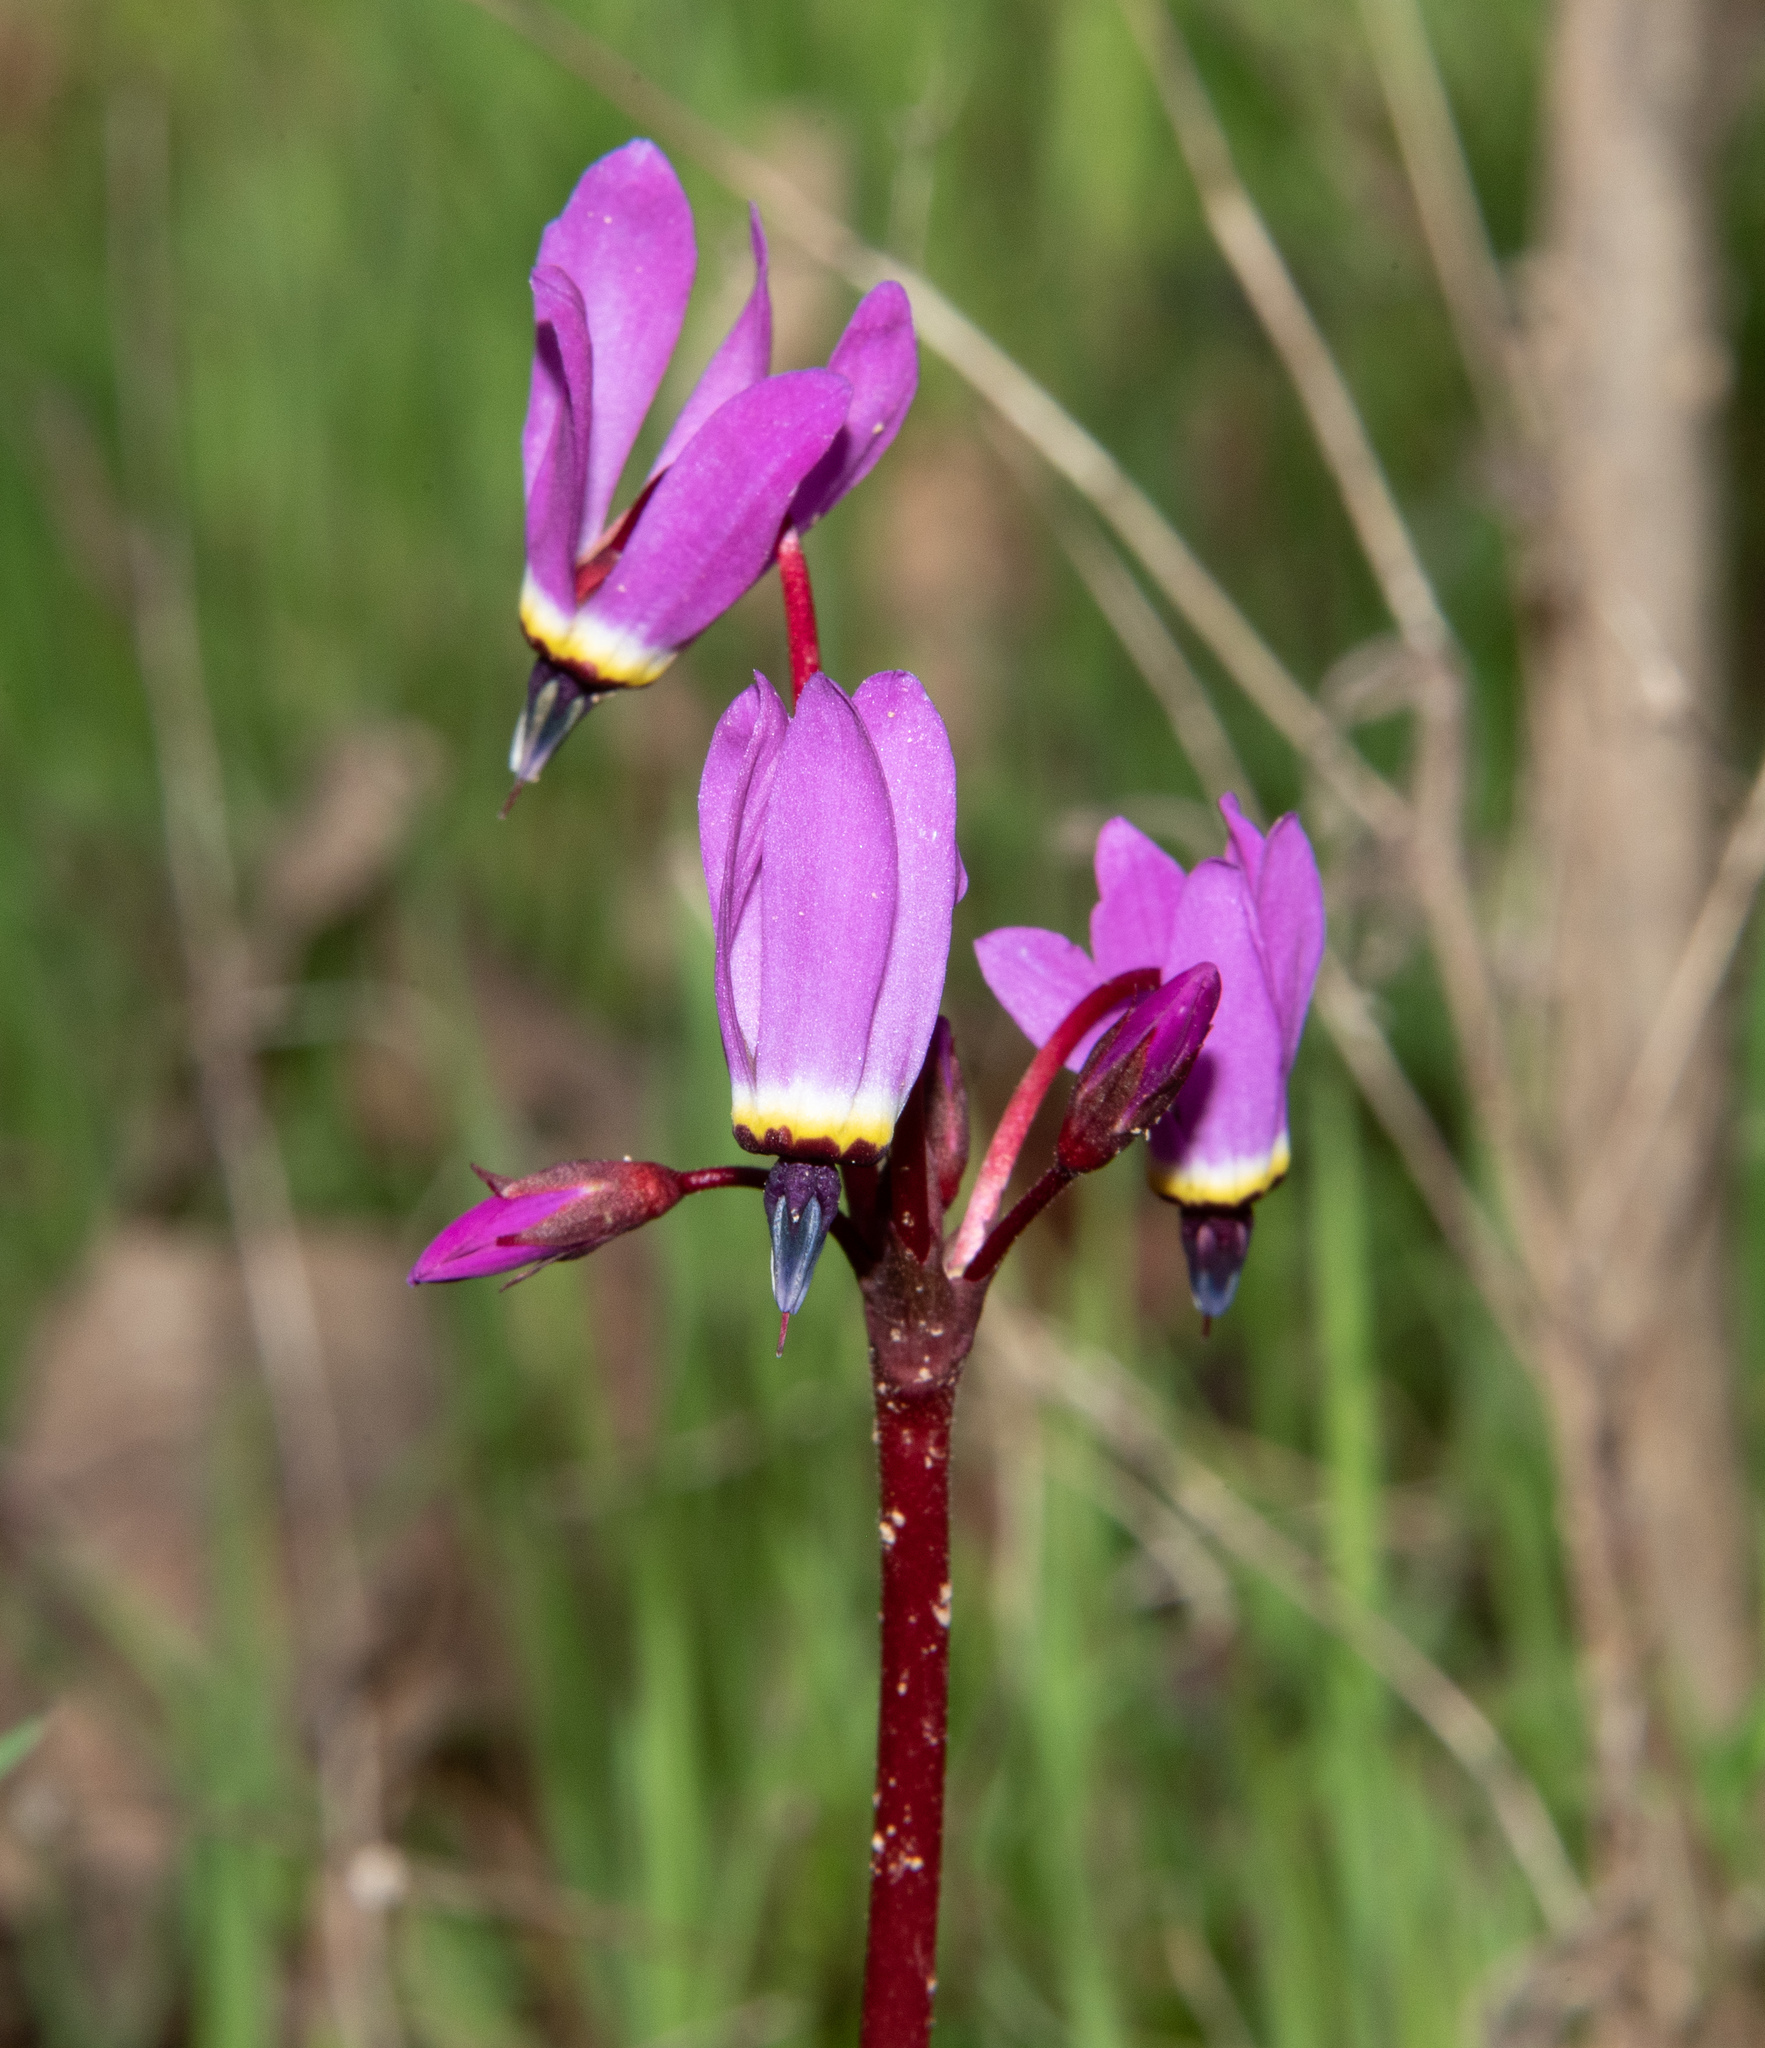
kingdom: Plantae
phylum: Tracheophyta
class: Magnoliopsida
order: Ericales
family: Primulaceae
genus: Dodecatheon
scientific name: Dodecatheon hendersonii
